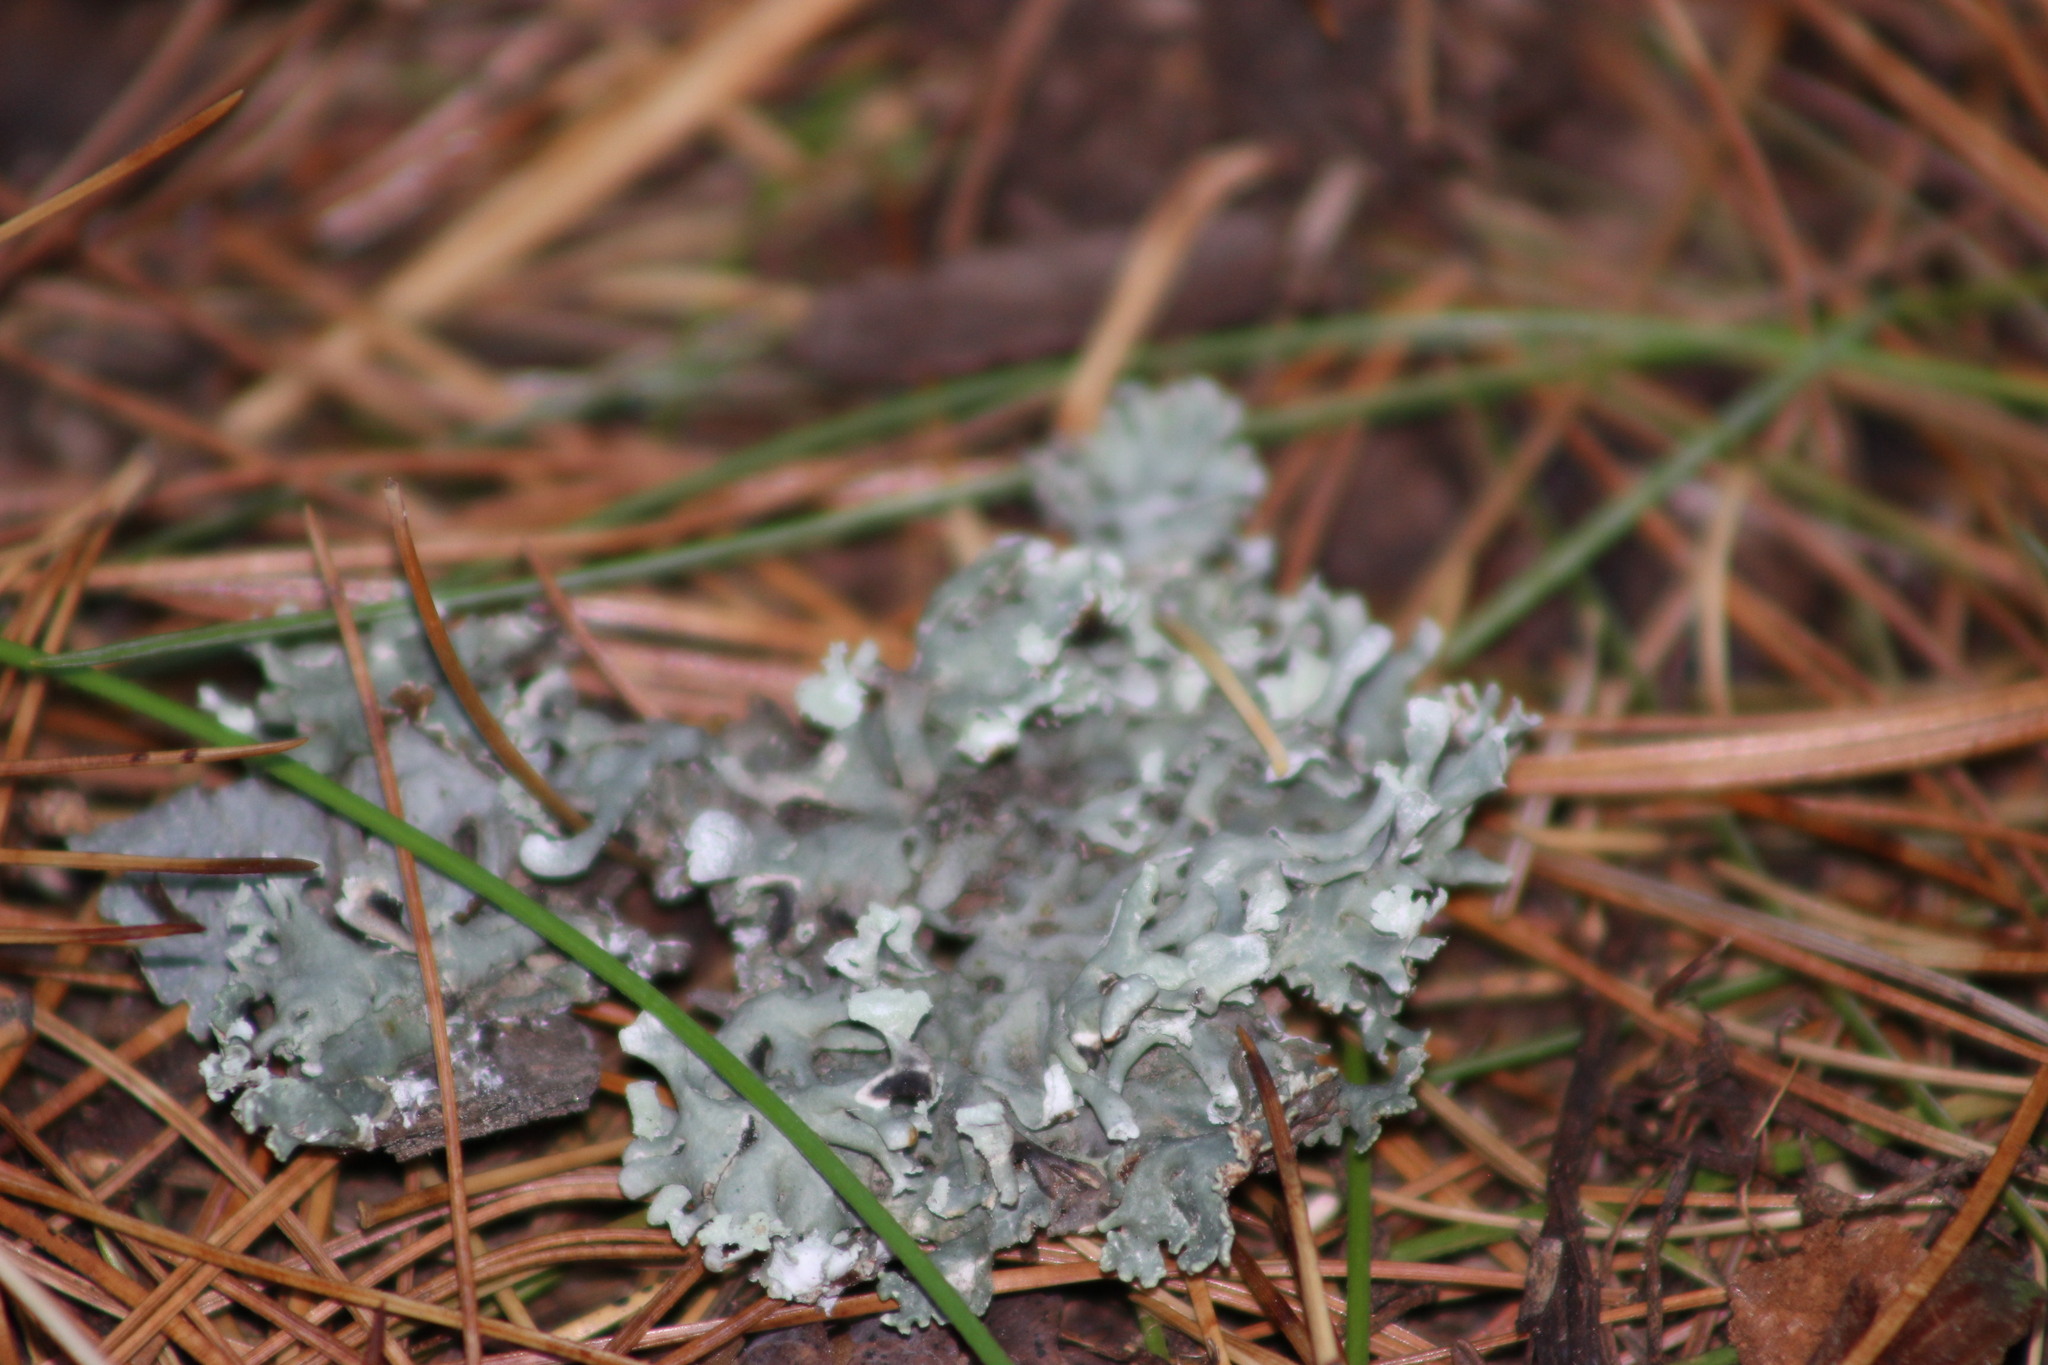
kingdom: Fungi
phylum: Ascomycota
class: Lecanoromycetes
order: Lecanorales
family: Parmeliaceae
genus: Hypogymnia
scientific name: Hypogymnia physodes
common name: Dark crottle
